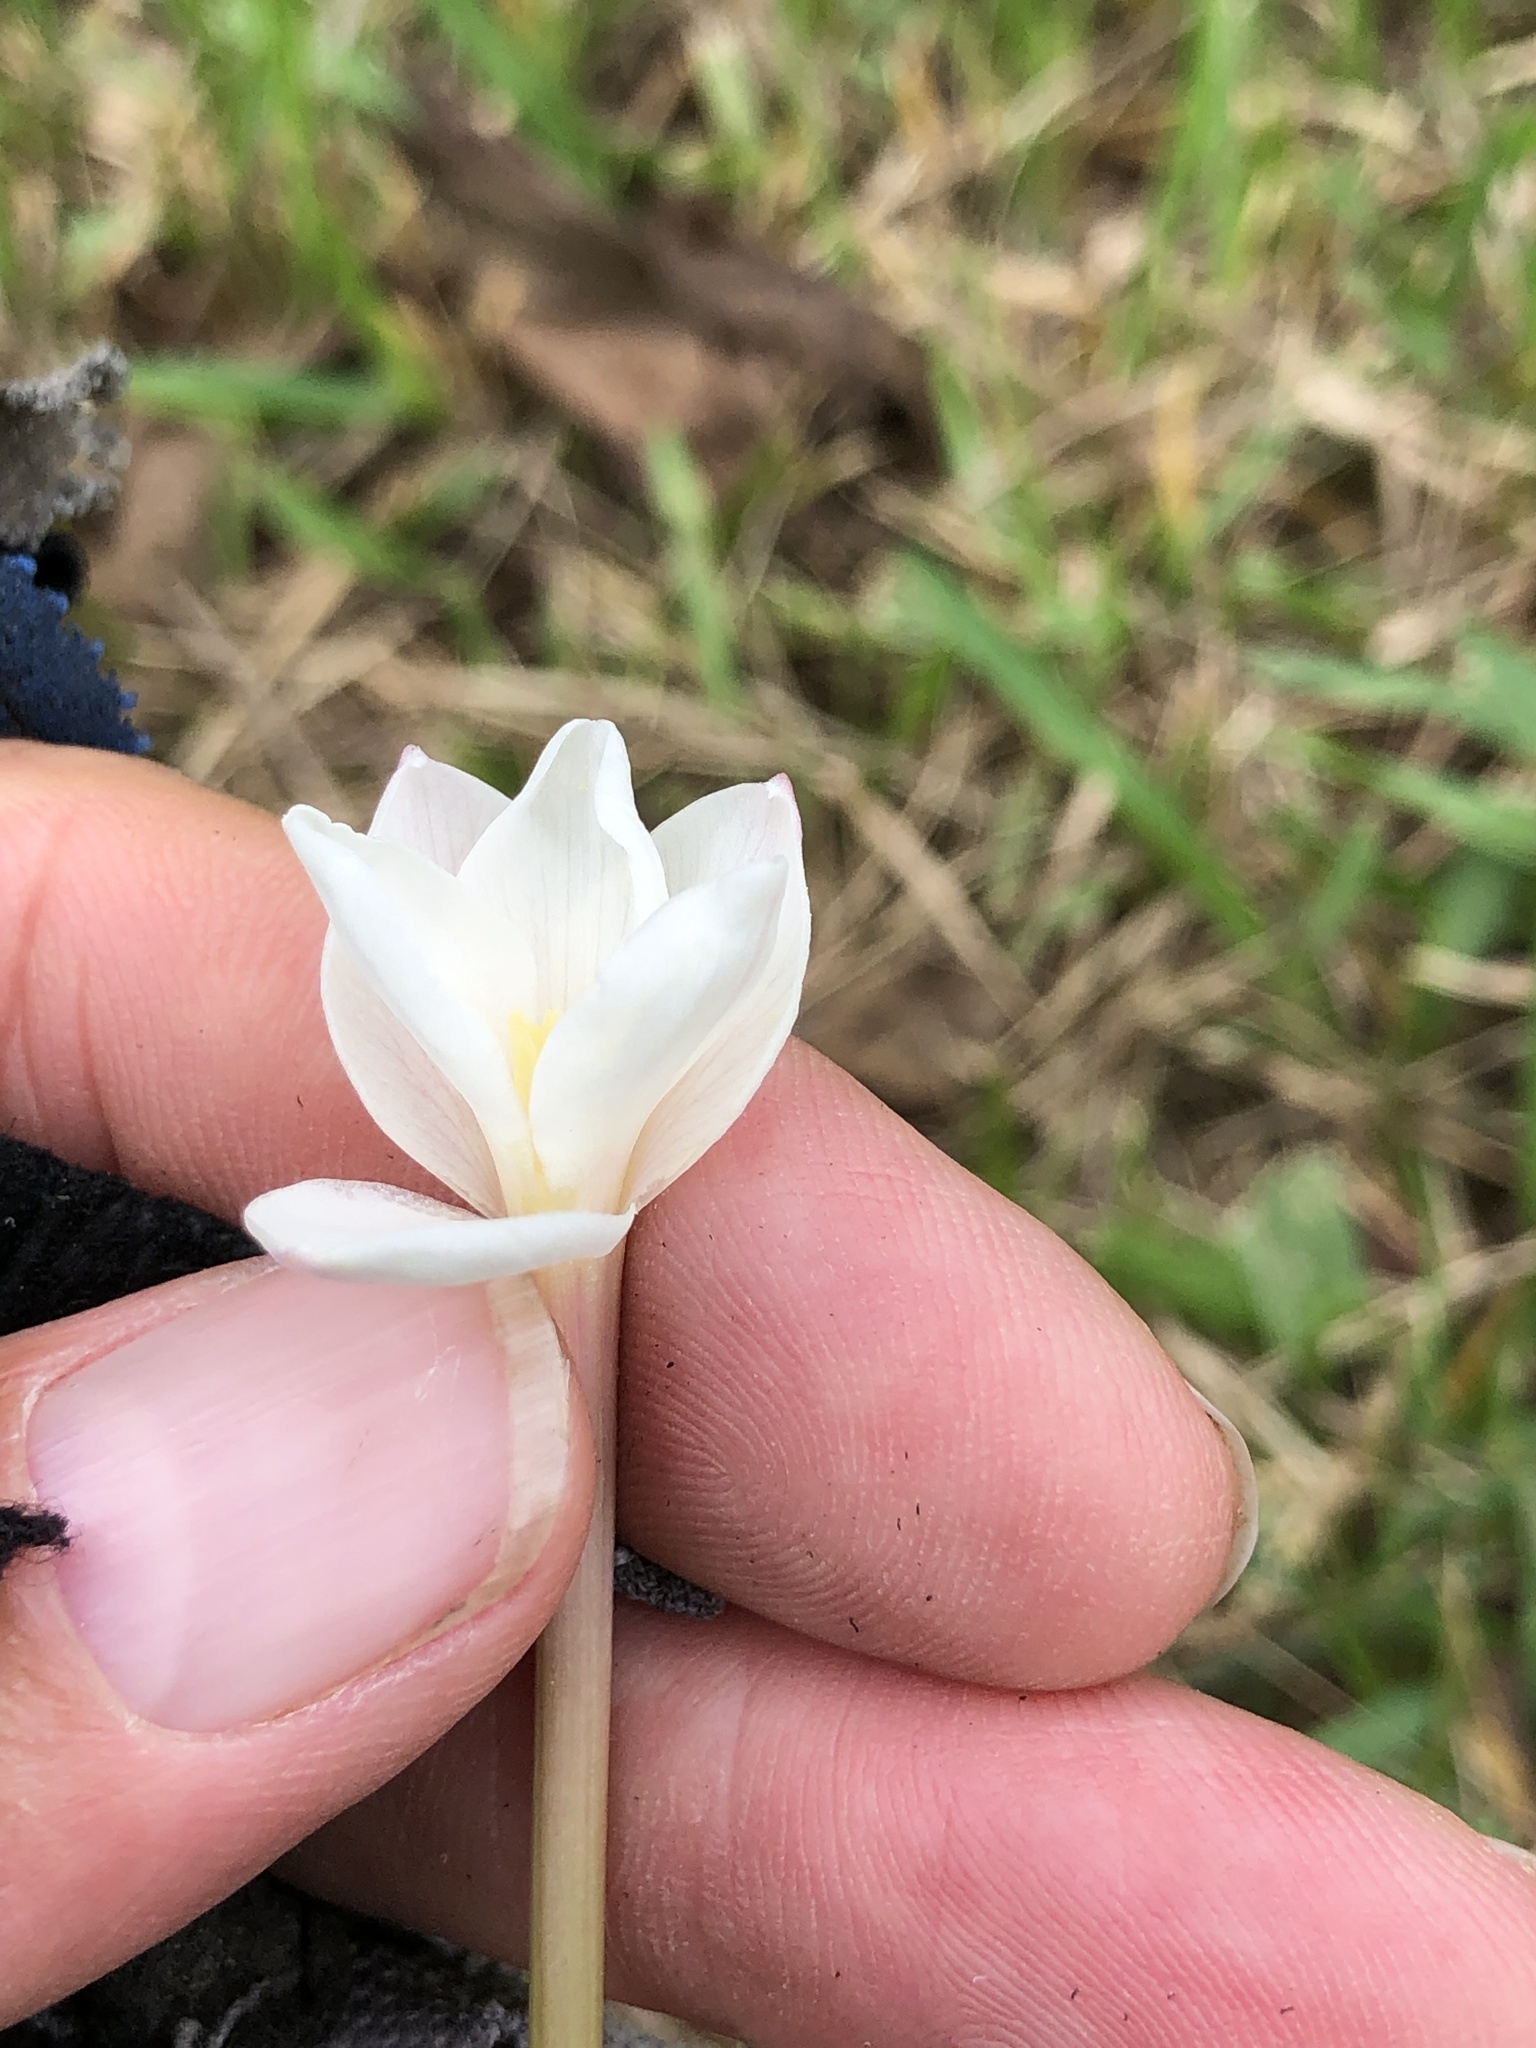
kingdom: Plantae
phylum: Tracheophyta
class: Liliopsida
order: Asparagales
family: Amaryllidaceae
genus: Zephyranthes
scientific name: Zephyranthes chlorosolen
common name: Evening rain-lily
